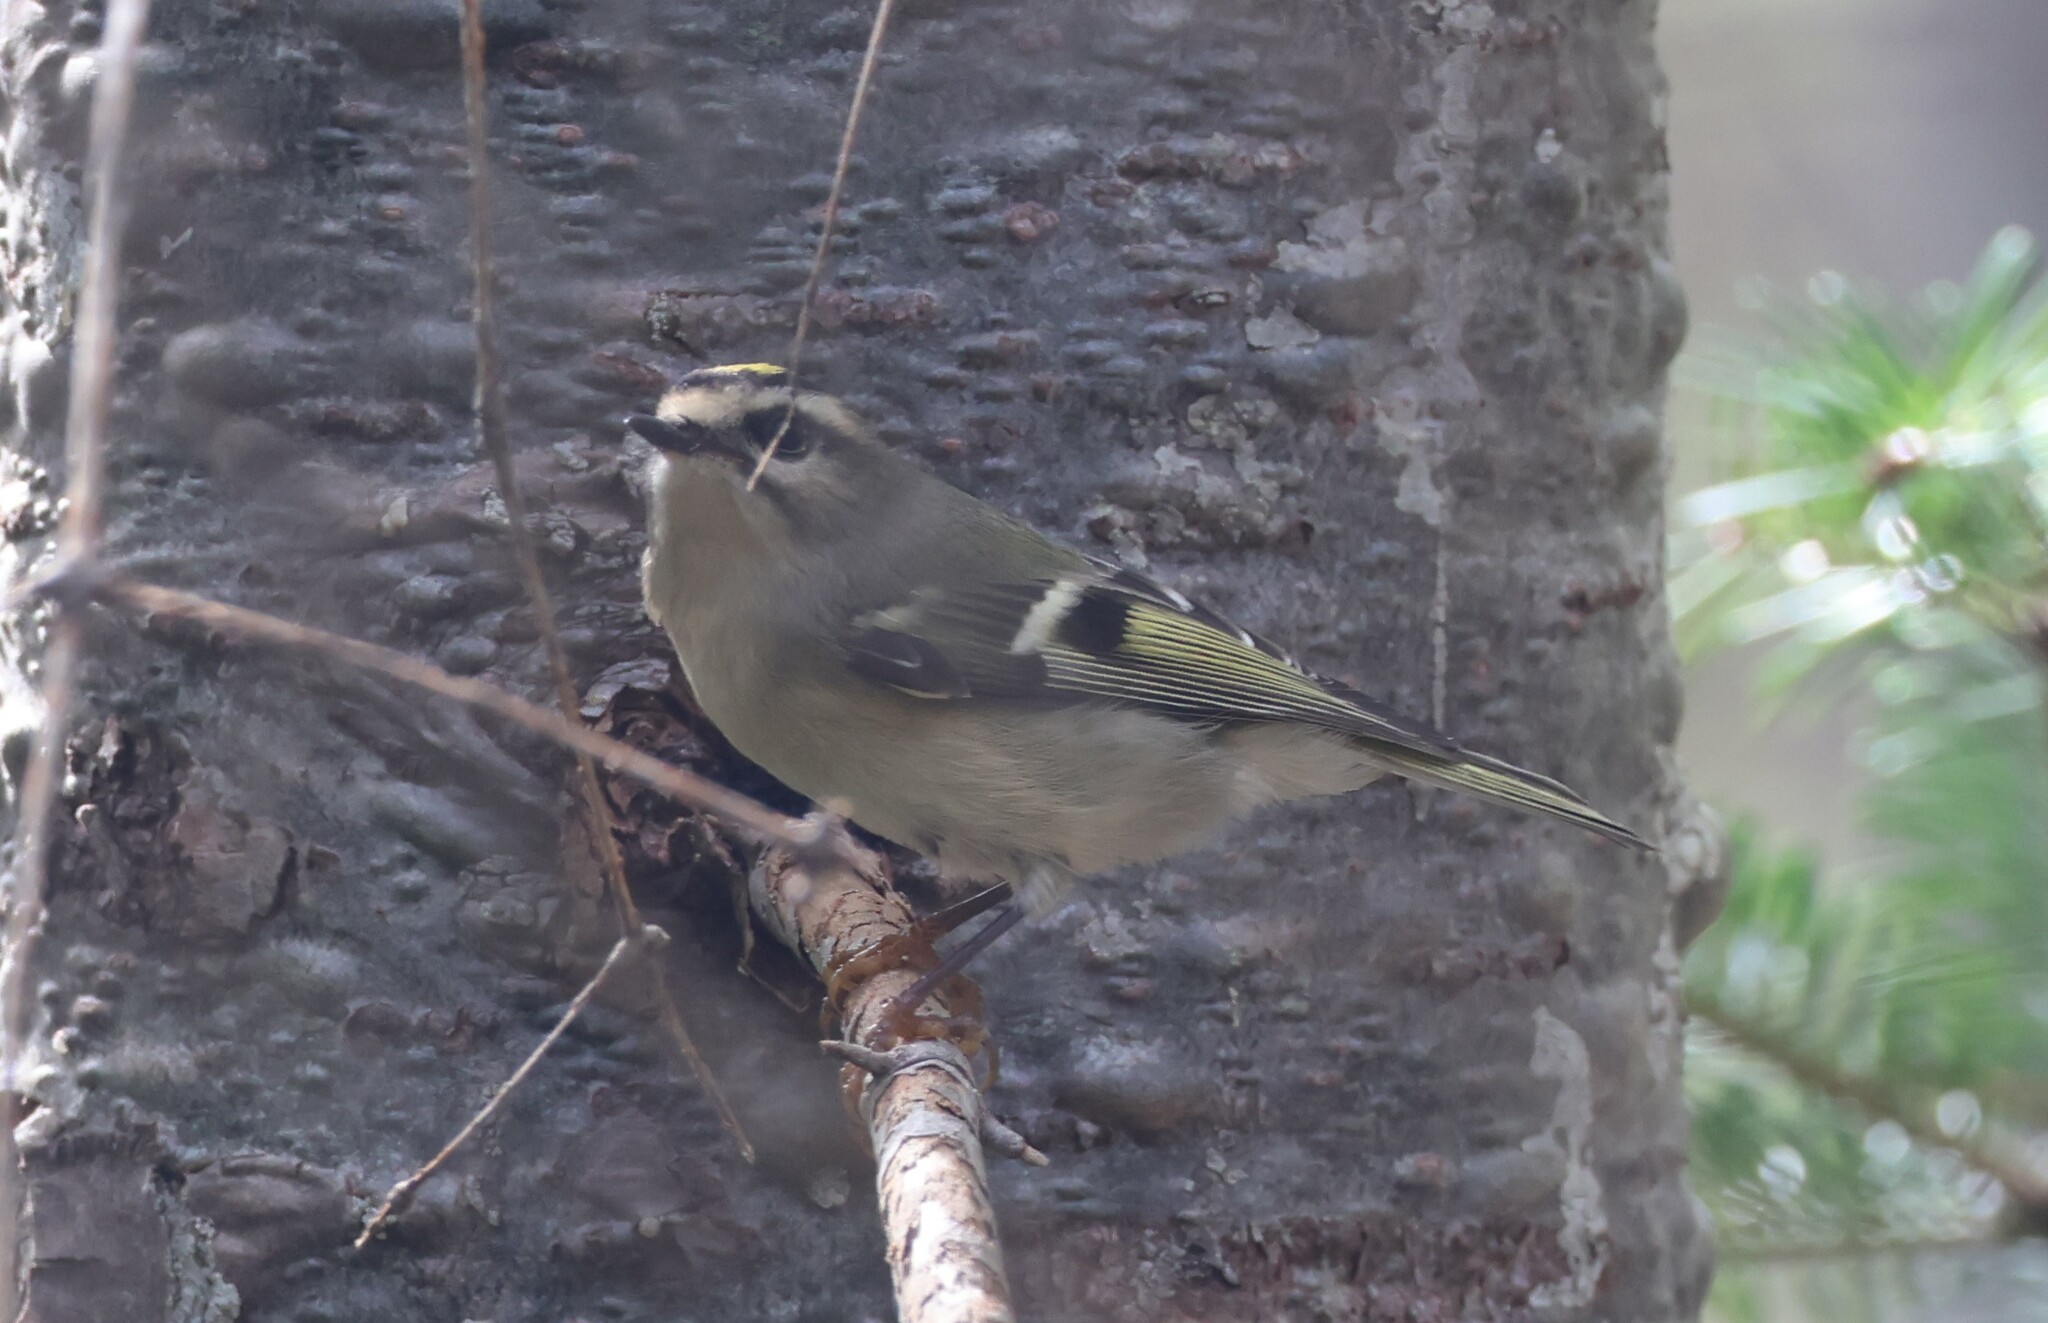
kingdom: Animalia
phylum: Chordata
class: Aves
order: Passeriformes
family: Regulidae
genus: Regulus
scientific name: Regulus satrapa
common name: Golden-crowned kinglet
